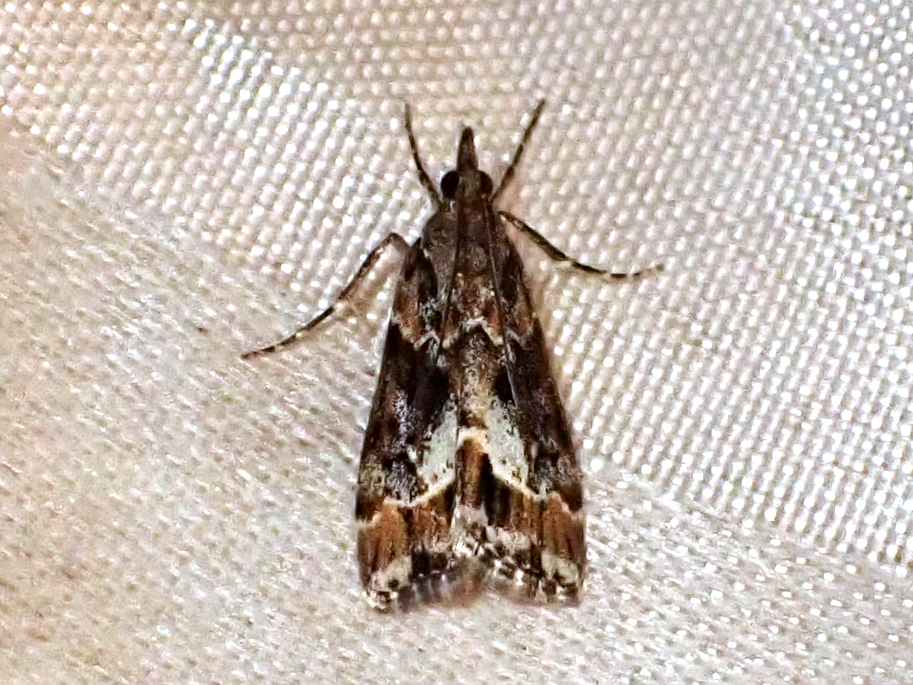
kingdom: Animalia
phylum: Arthropoda
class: Insecta
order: Lepidoptera
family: Crambidae
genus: Eudonia
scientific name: Eudonia legnota
